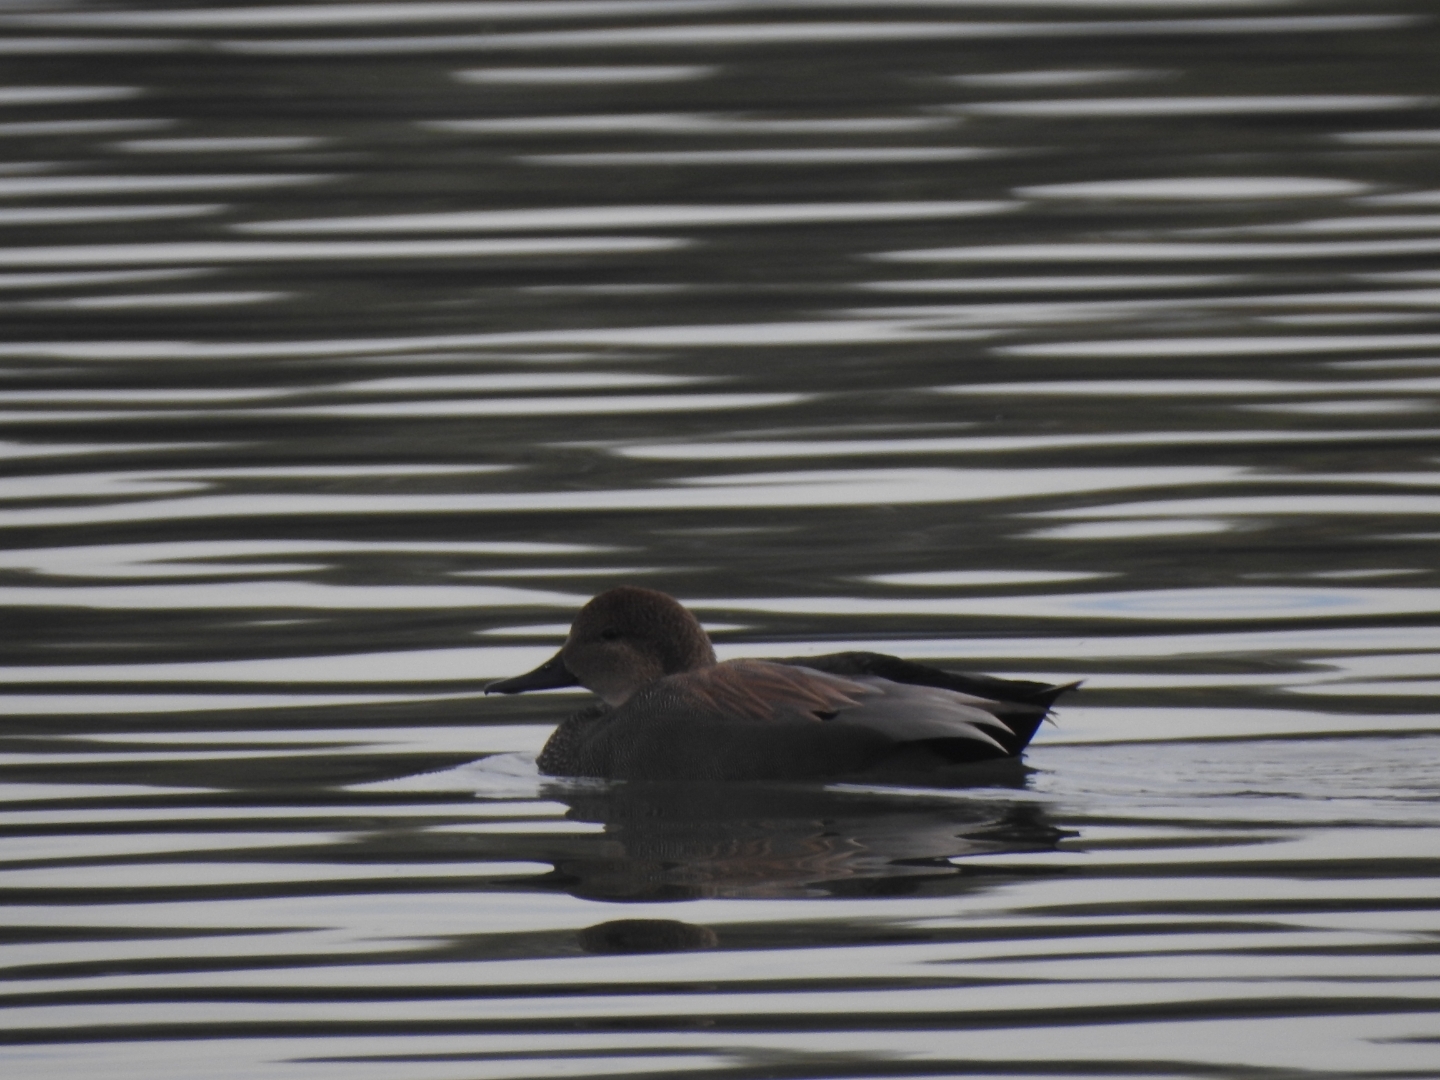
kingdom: Animalia
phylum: Chordata
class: Aves
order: Anseriformes
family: Anatidae
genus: Mareca
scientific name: Mareca strepera
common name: Gadwall
